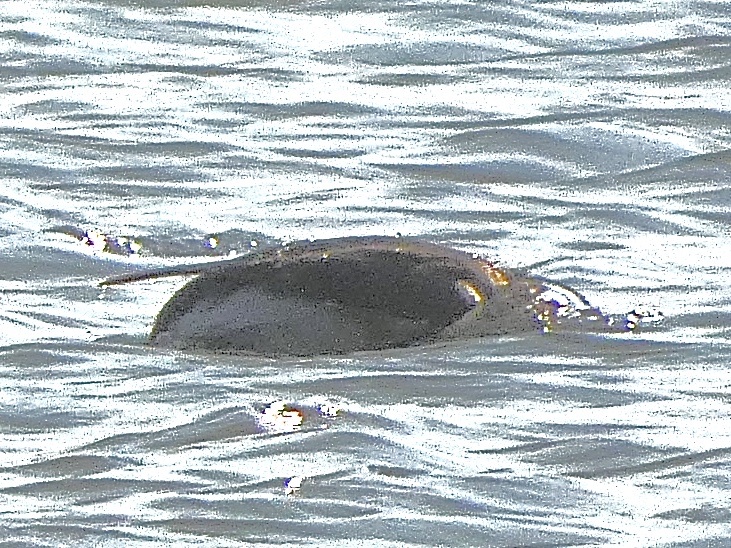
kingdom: Animalia
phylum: Chordata
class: Aves
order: Anseriformes
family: Anatidae
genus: Clangula
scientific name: Clangula hyemalis
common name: Long-tailed duck
